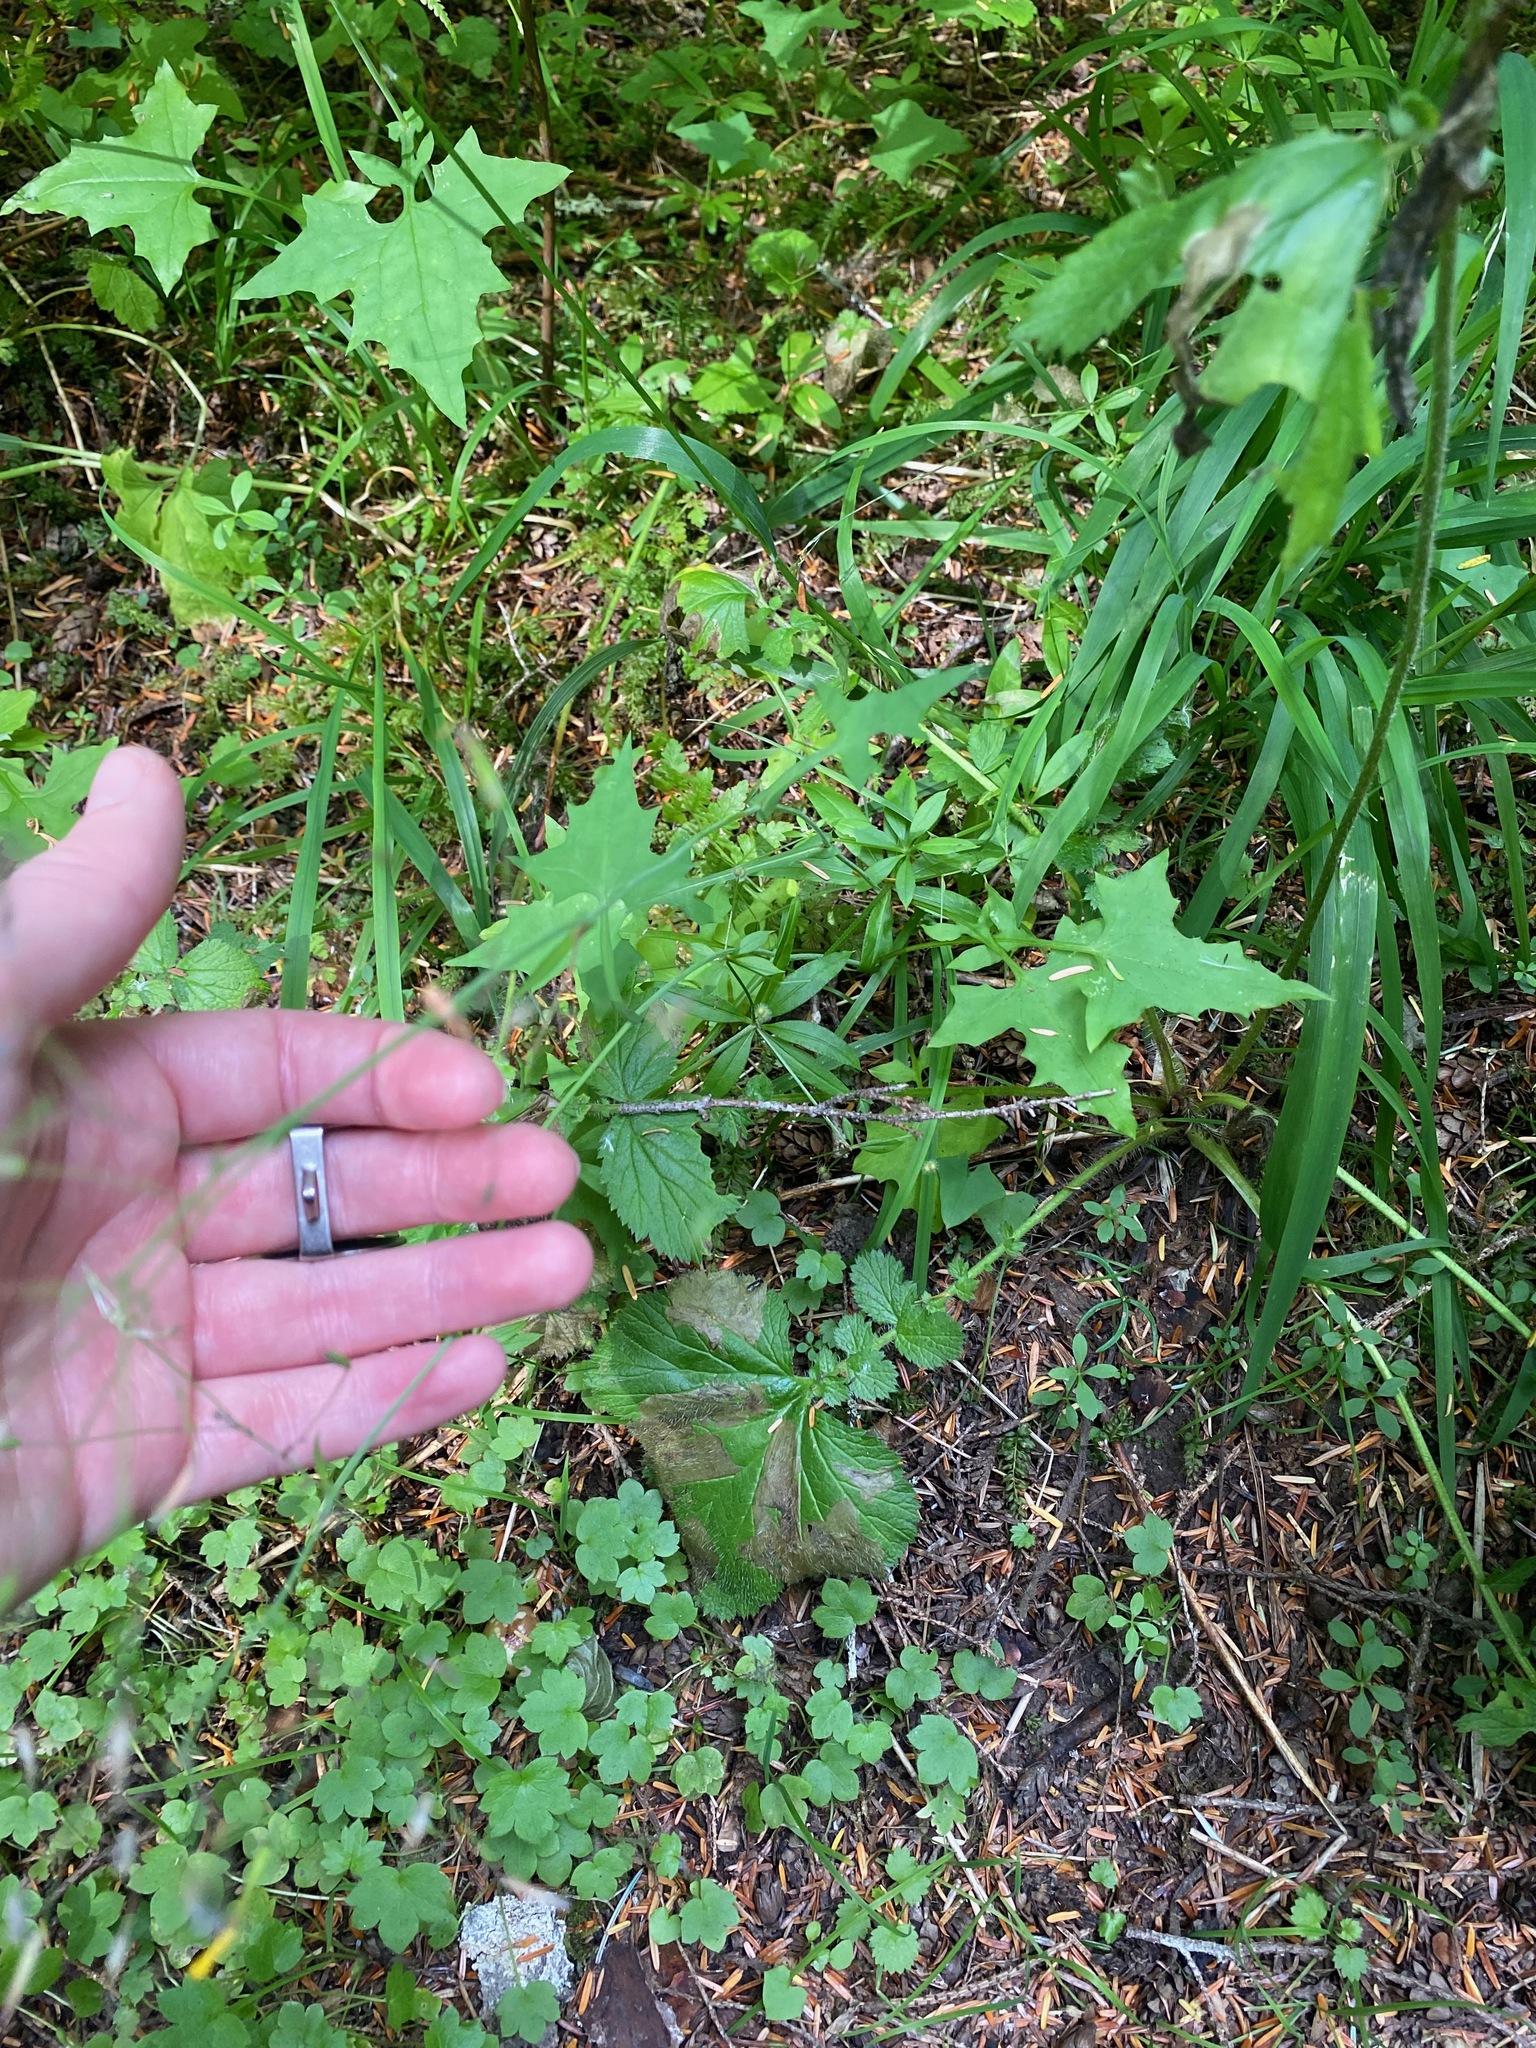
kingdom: Plantae
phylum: Tracheophyta
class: Magnoliopsida
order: Asterales
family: Asteraceae
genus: Mycelis
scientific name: Mycelis muralis
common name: Wall lettuce
